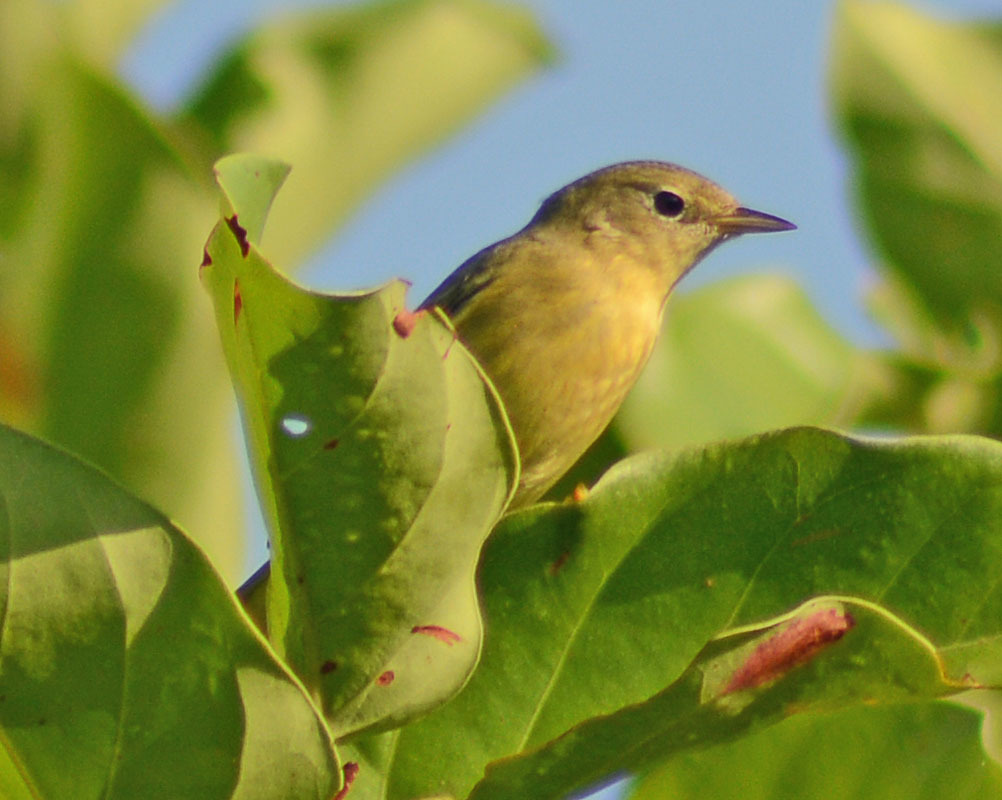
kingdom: Animalia
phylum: Chordata
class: Aves
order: Passeriformes
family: Parulidae
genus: Setophaga
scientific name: Setophaga petechia
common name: Yellow warbler
